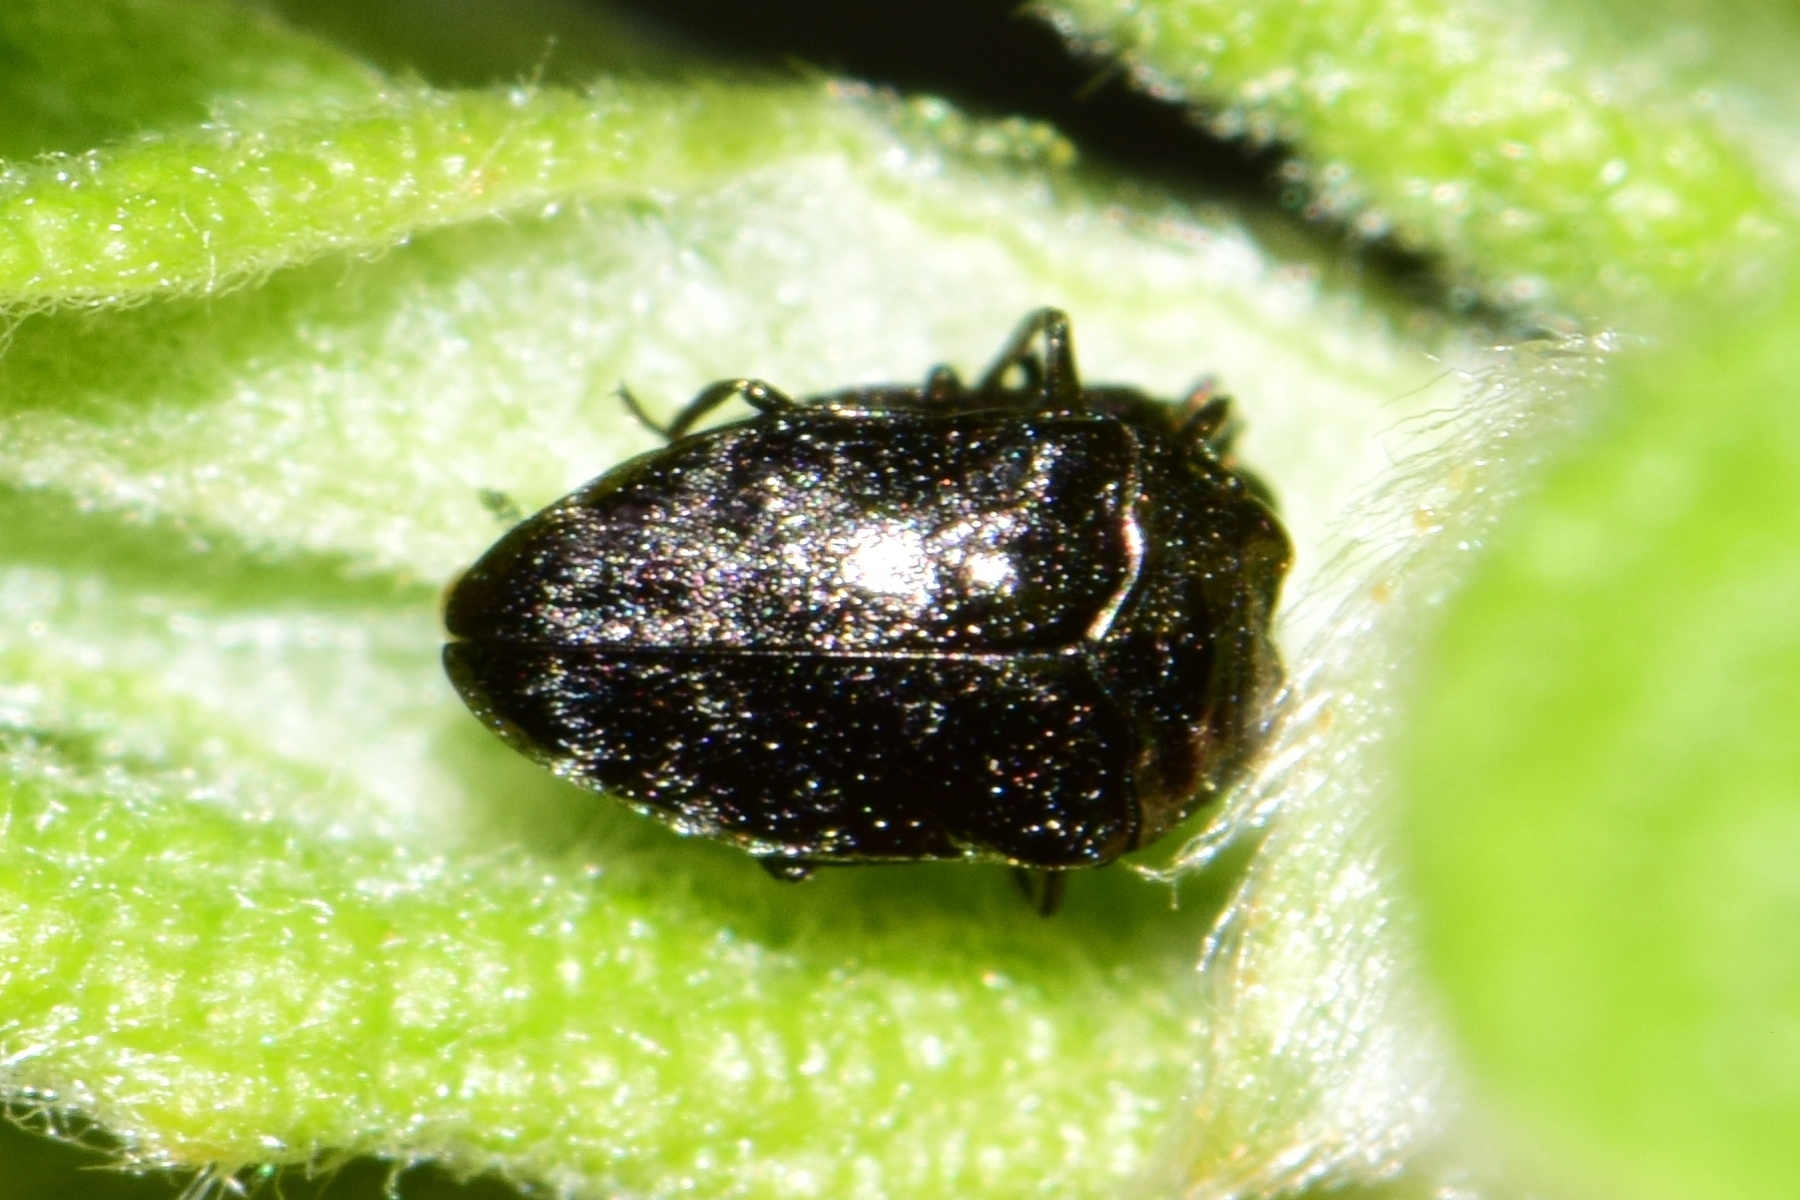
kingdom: Animalia
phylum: Arthropoda
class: Insecta
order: Coleoptera
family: Buprestidae
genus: Trachys
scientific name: Trachys minutus
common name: Metallic wood-boring beetle
